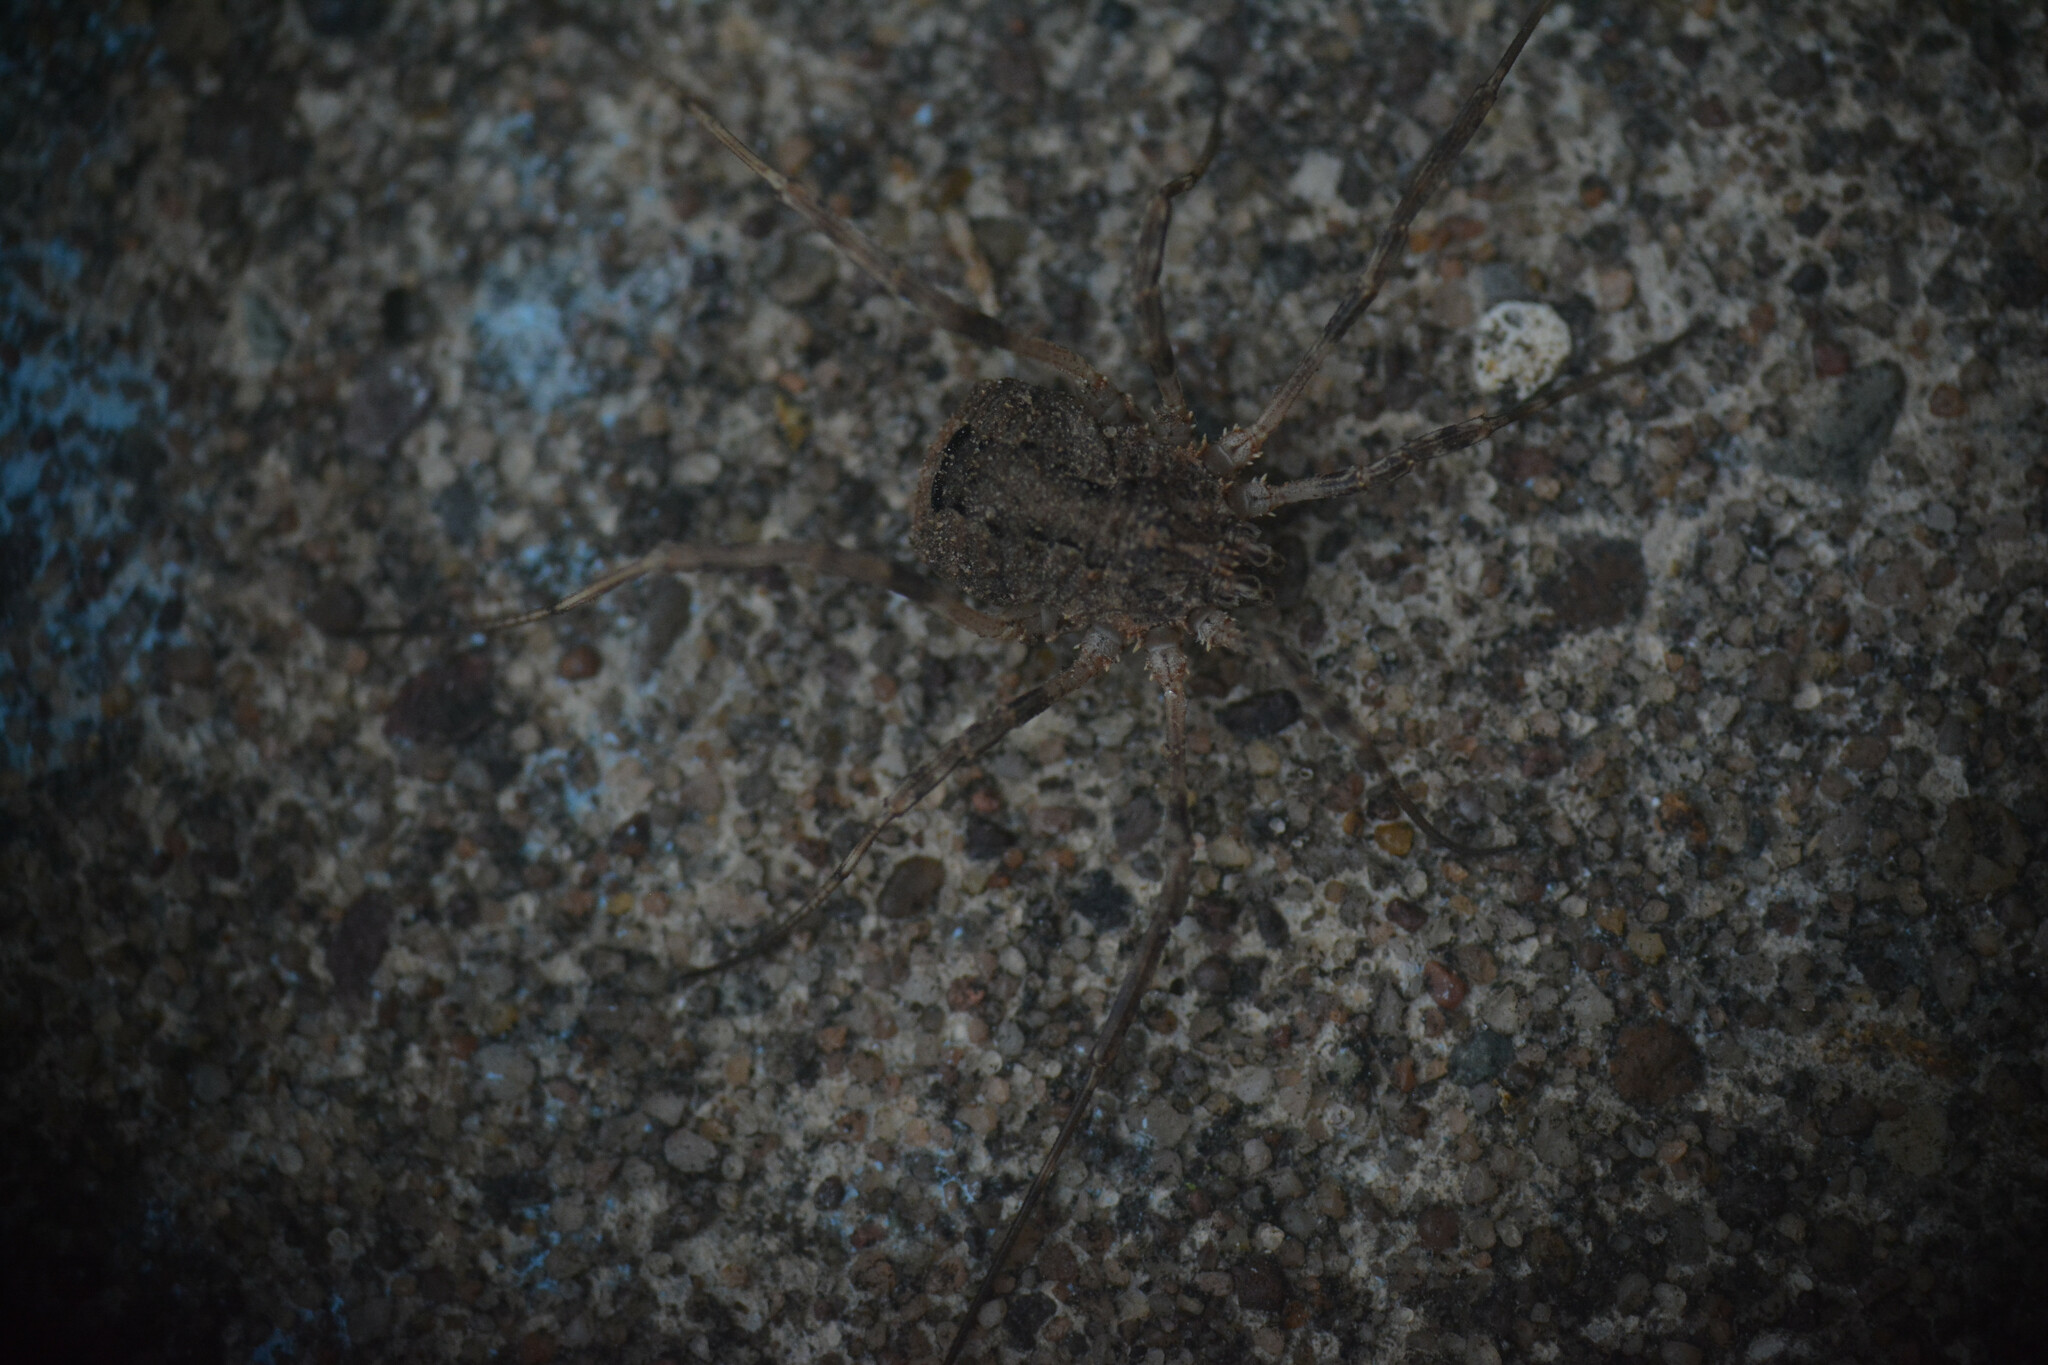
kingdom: Animalia
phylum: Arthropoda
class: Arachnida
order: Opiliones
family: Phalangiidae
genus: Odiellus
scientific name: Odiellus spinosus
